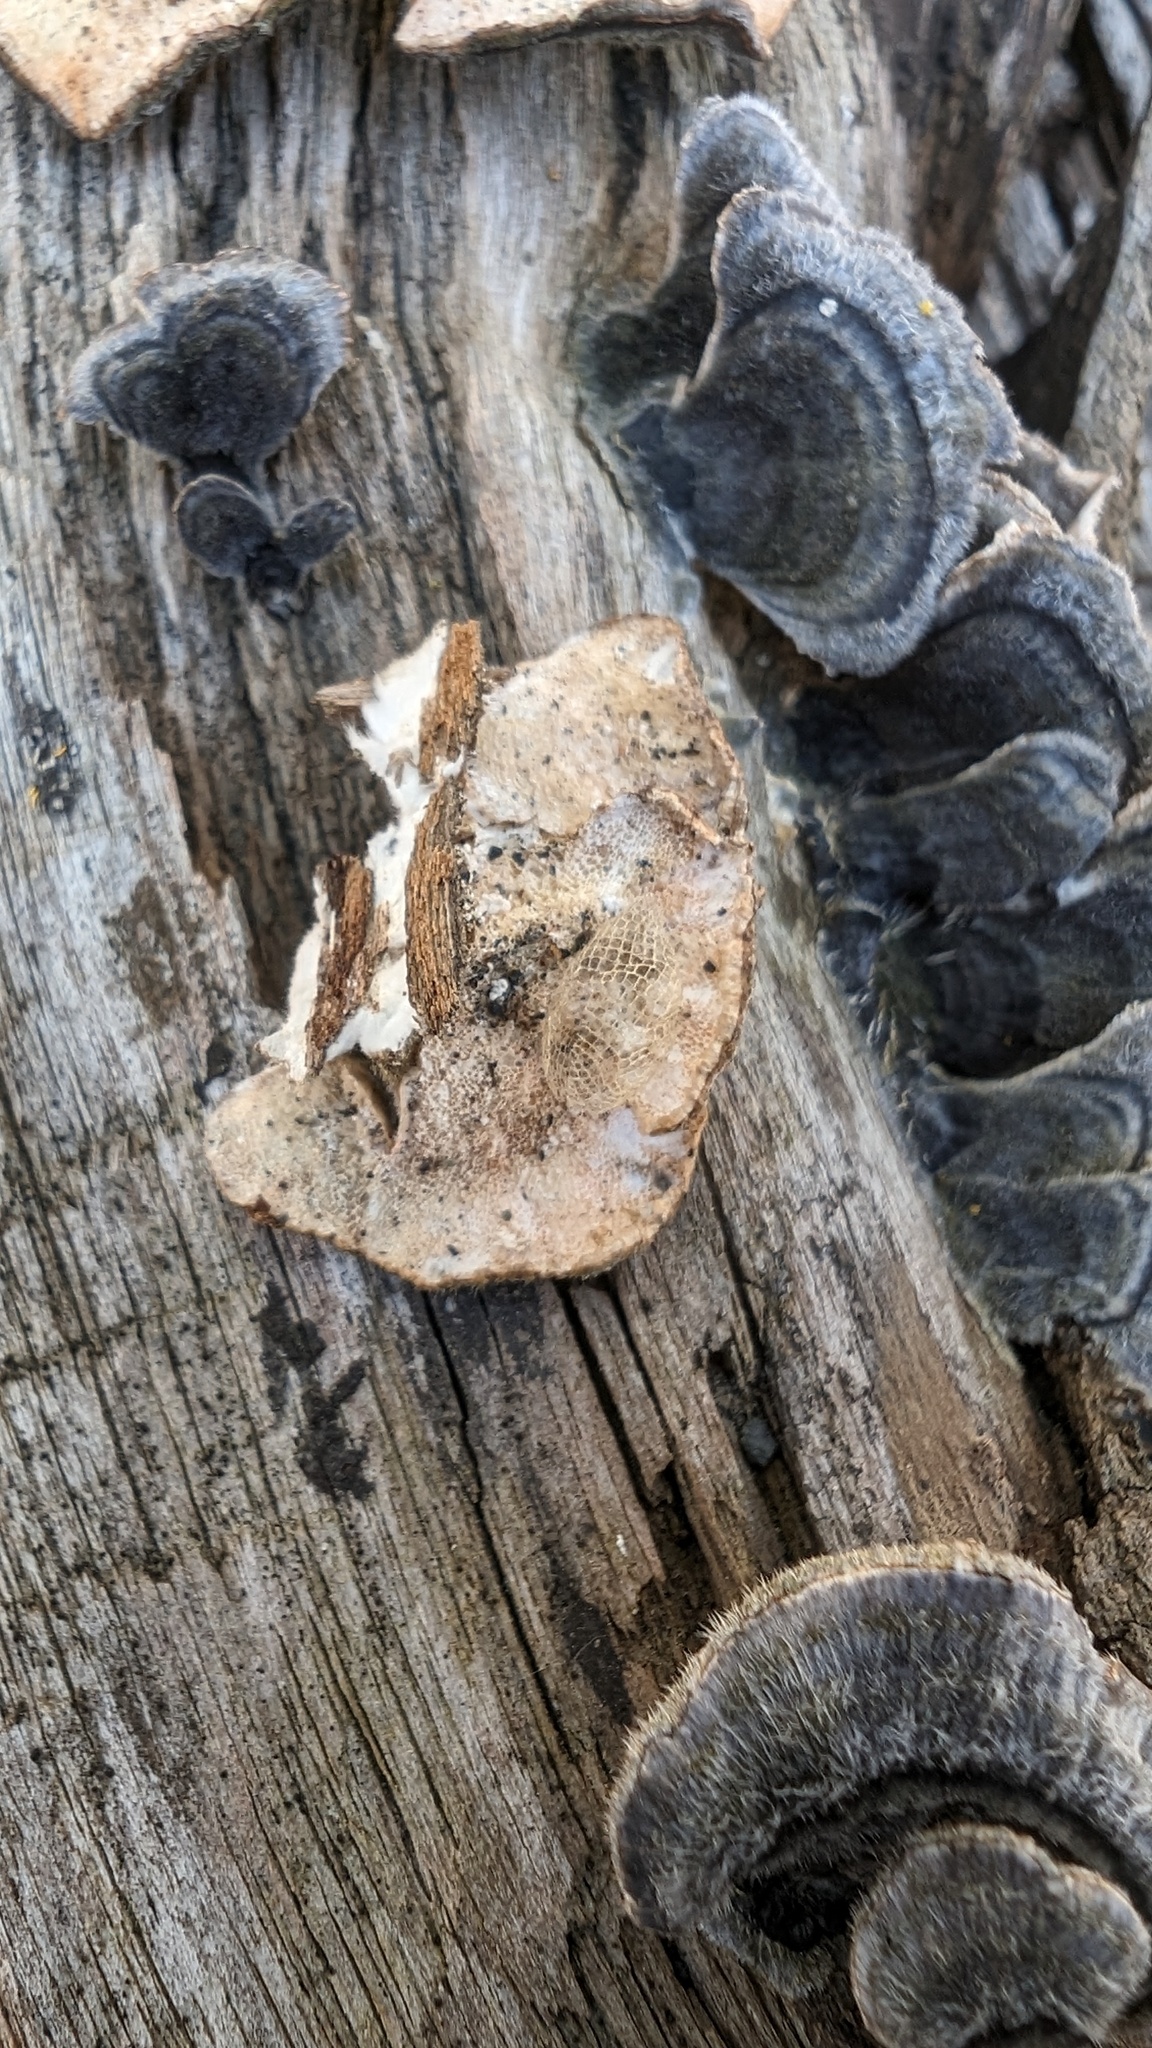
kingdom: Fungi
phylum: Basidiomycota
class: Agaricomycetes
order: Polyporales
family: Polyporaceae
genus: Trametes
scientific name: Trametes versicolor
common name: Turkeytail
